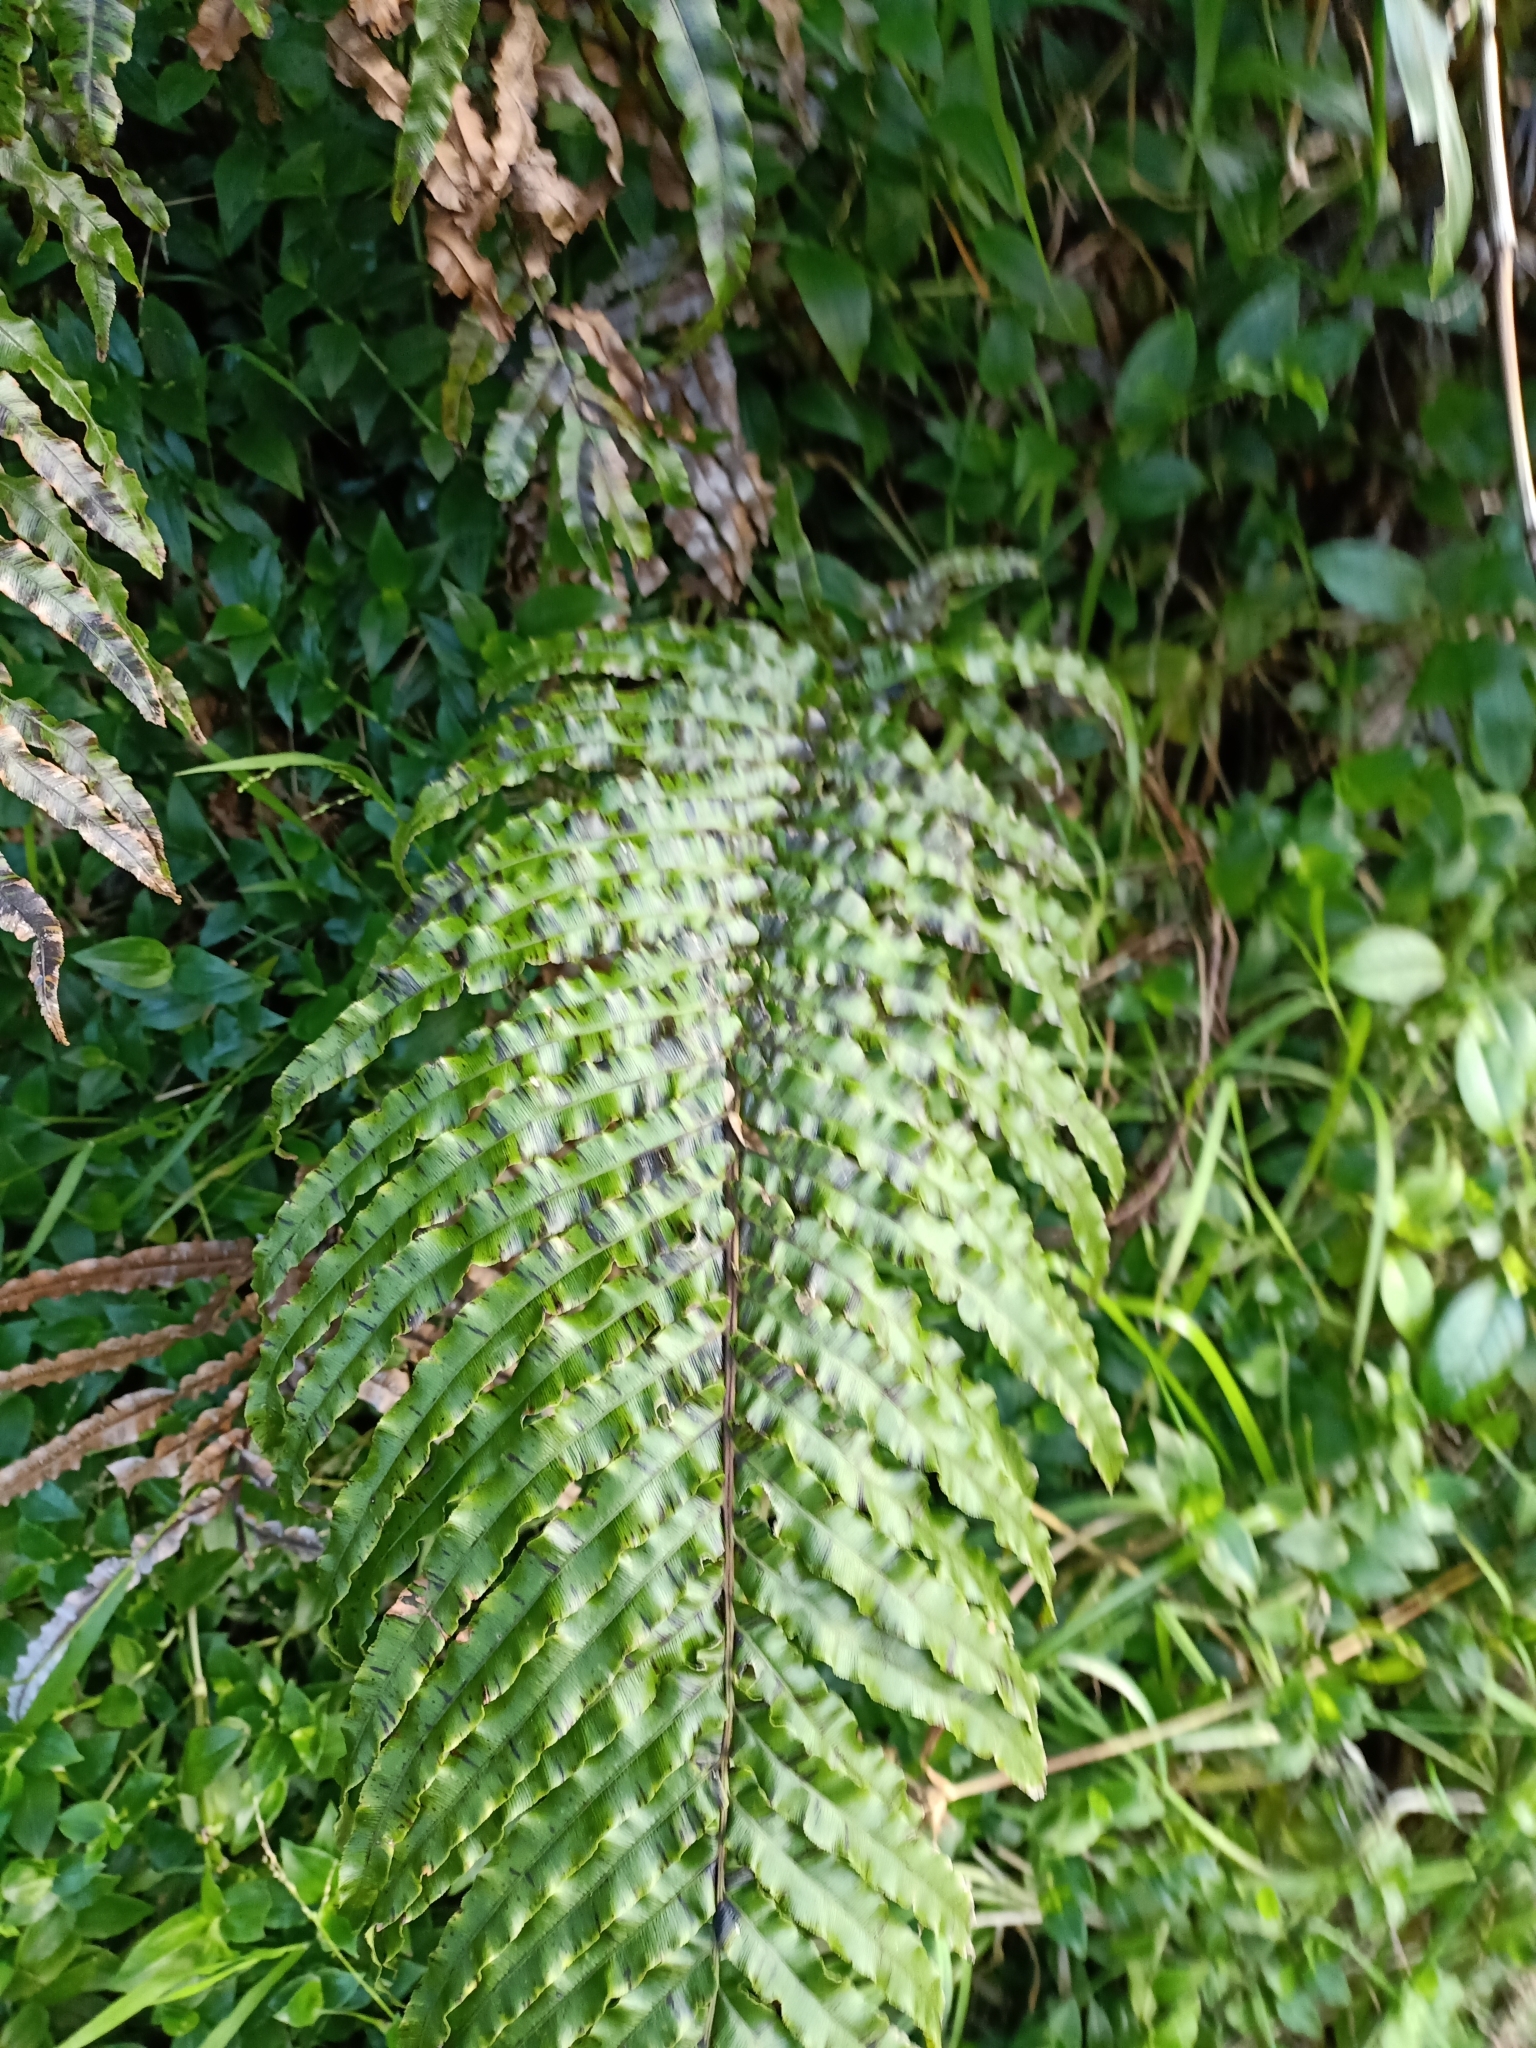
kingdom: Plantae
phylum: Tracheophyta
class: Polypodiopsida
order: Polypodiales
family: Blechnaceae
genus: Parablechnum
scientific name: Parablechnum novae-zelandiae
